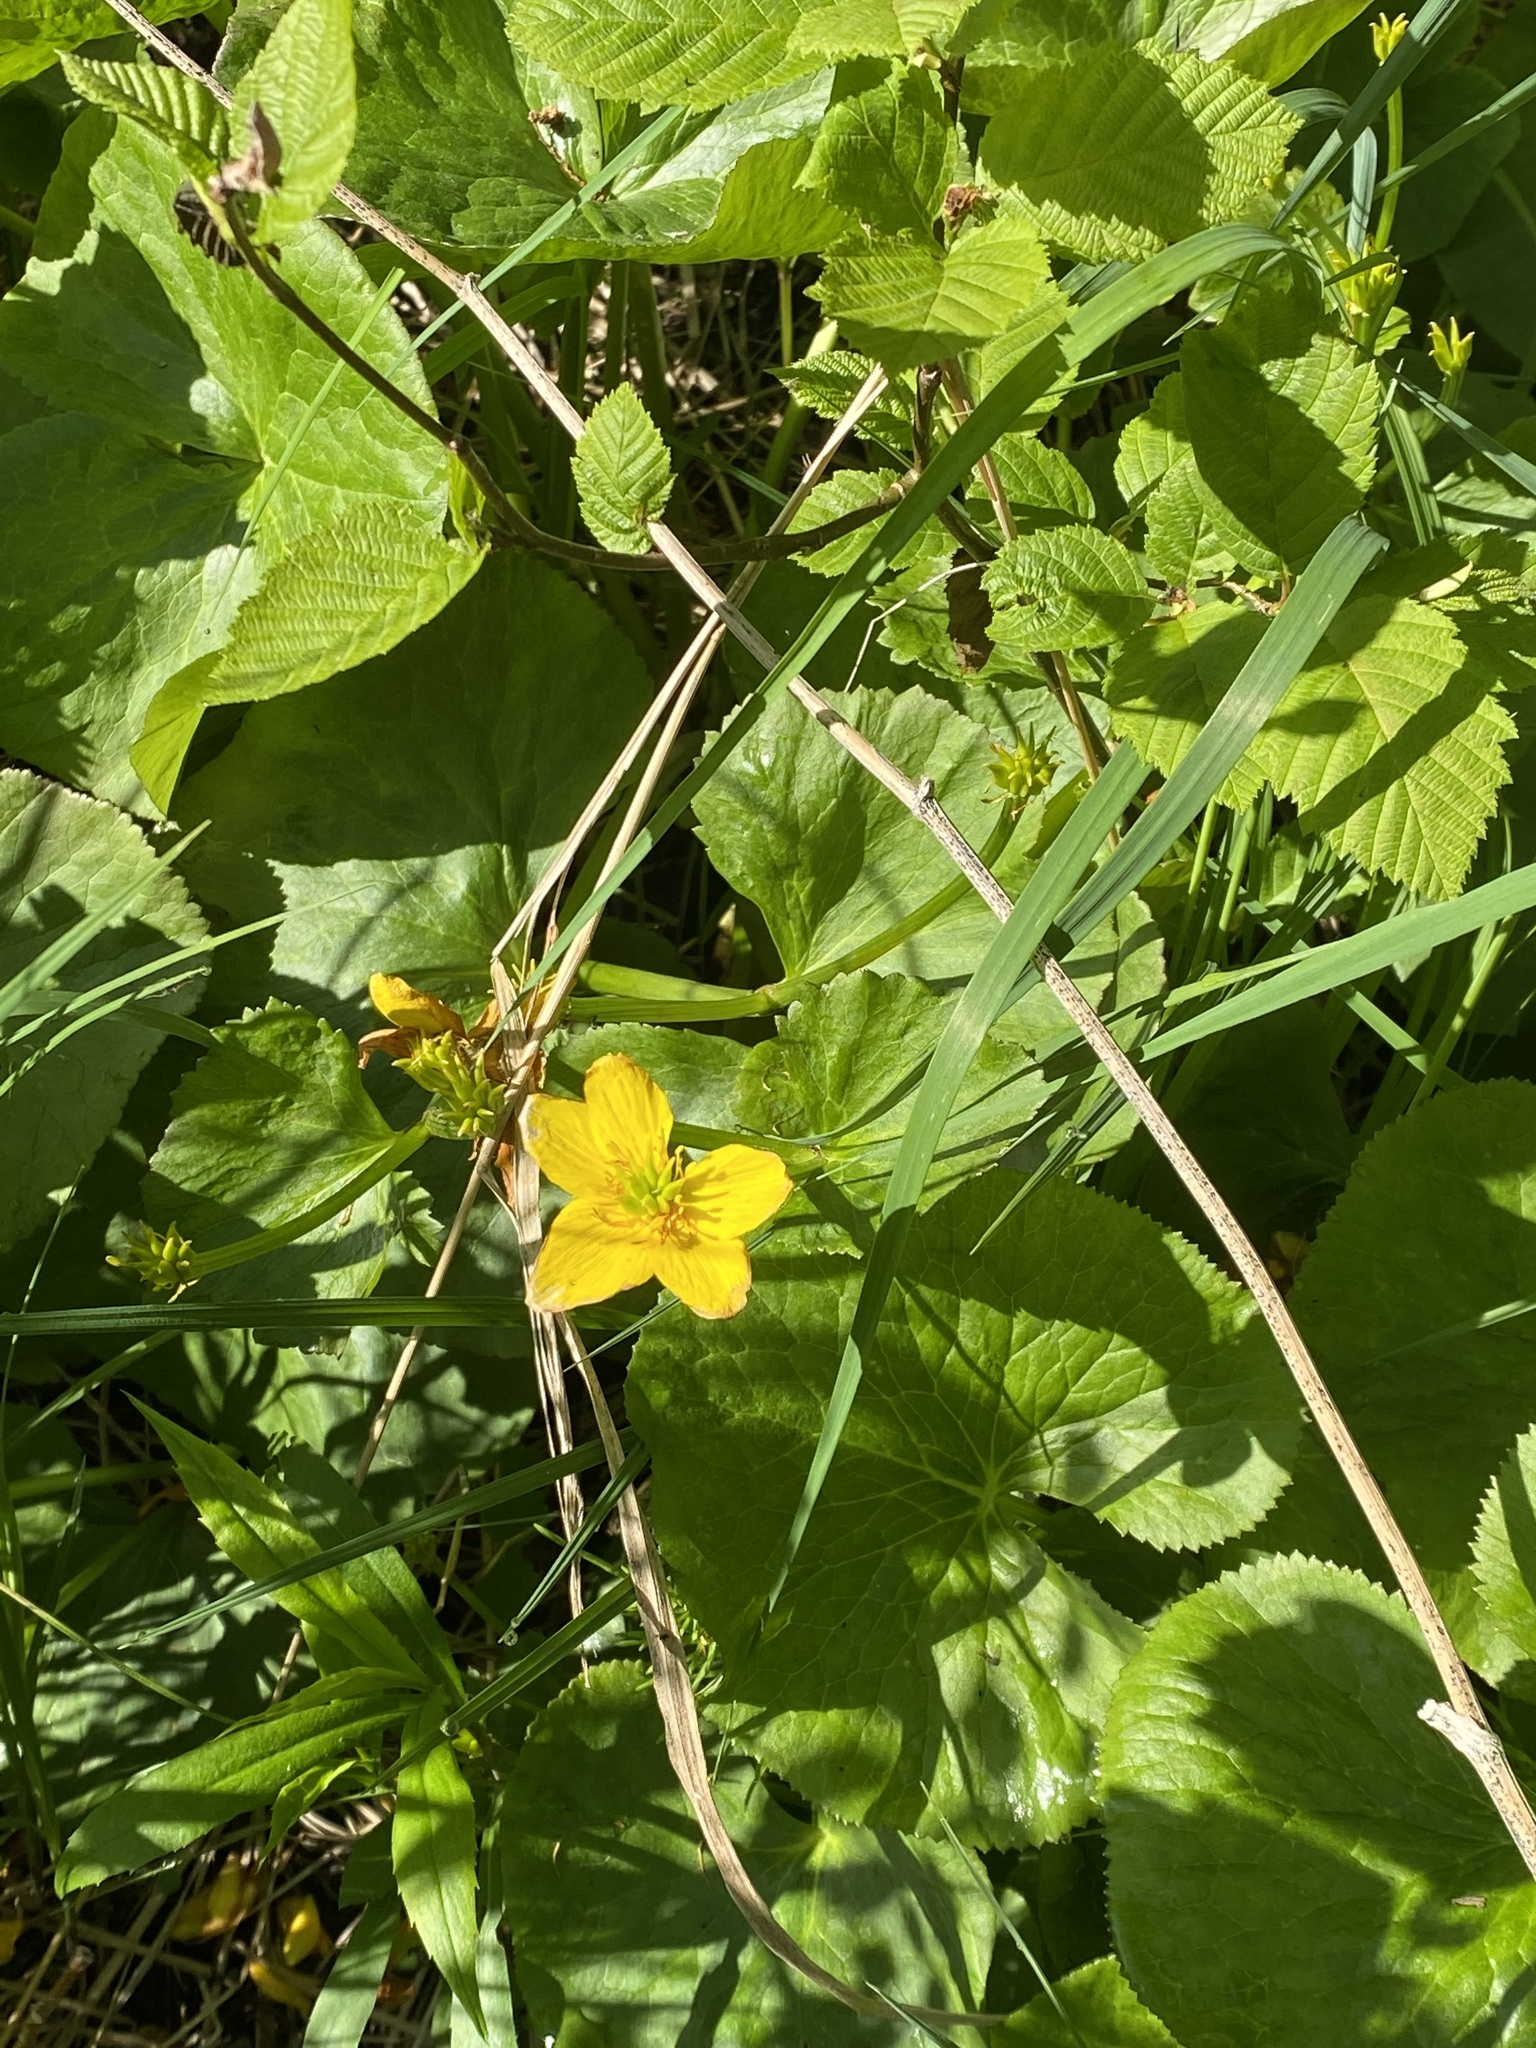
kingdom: Plantae
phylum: Tracheophyta
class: Magnoliopsida
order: Ranunculales
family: Ranunculaceae
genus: Caltha
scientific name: Caltha palustris
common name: Marsh marigold
